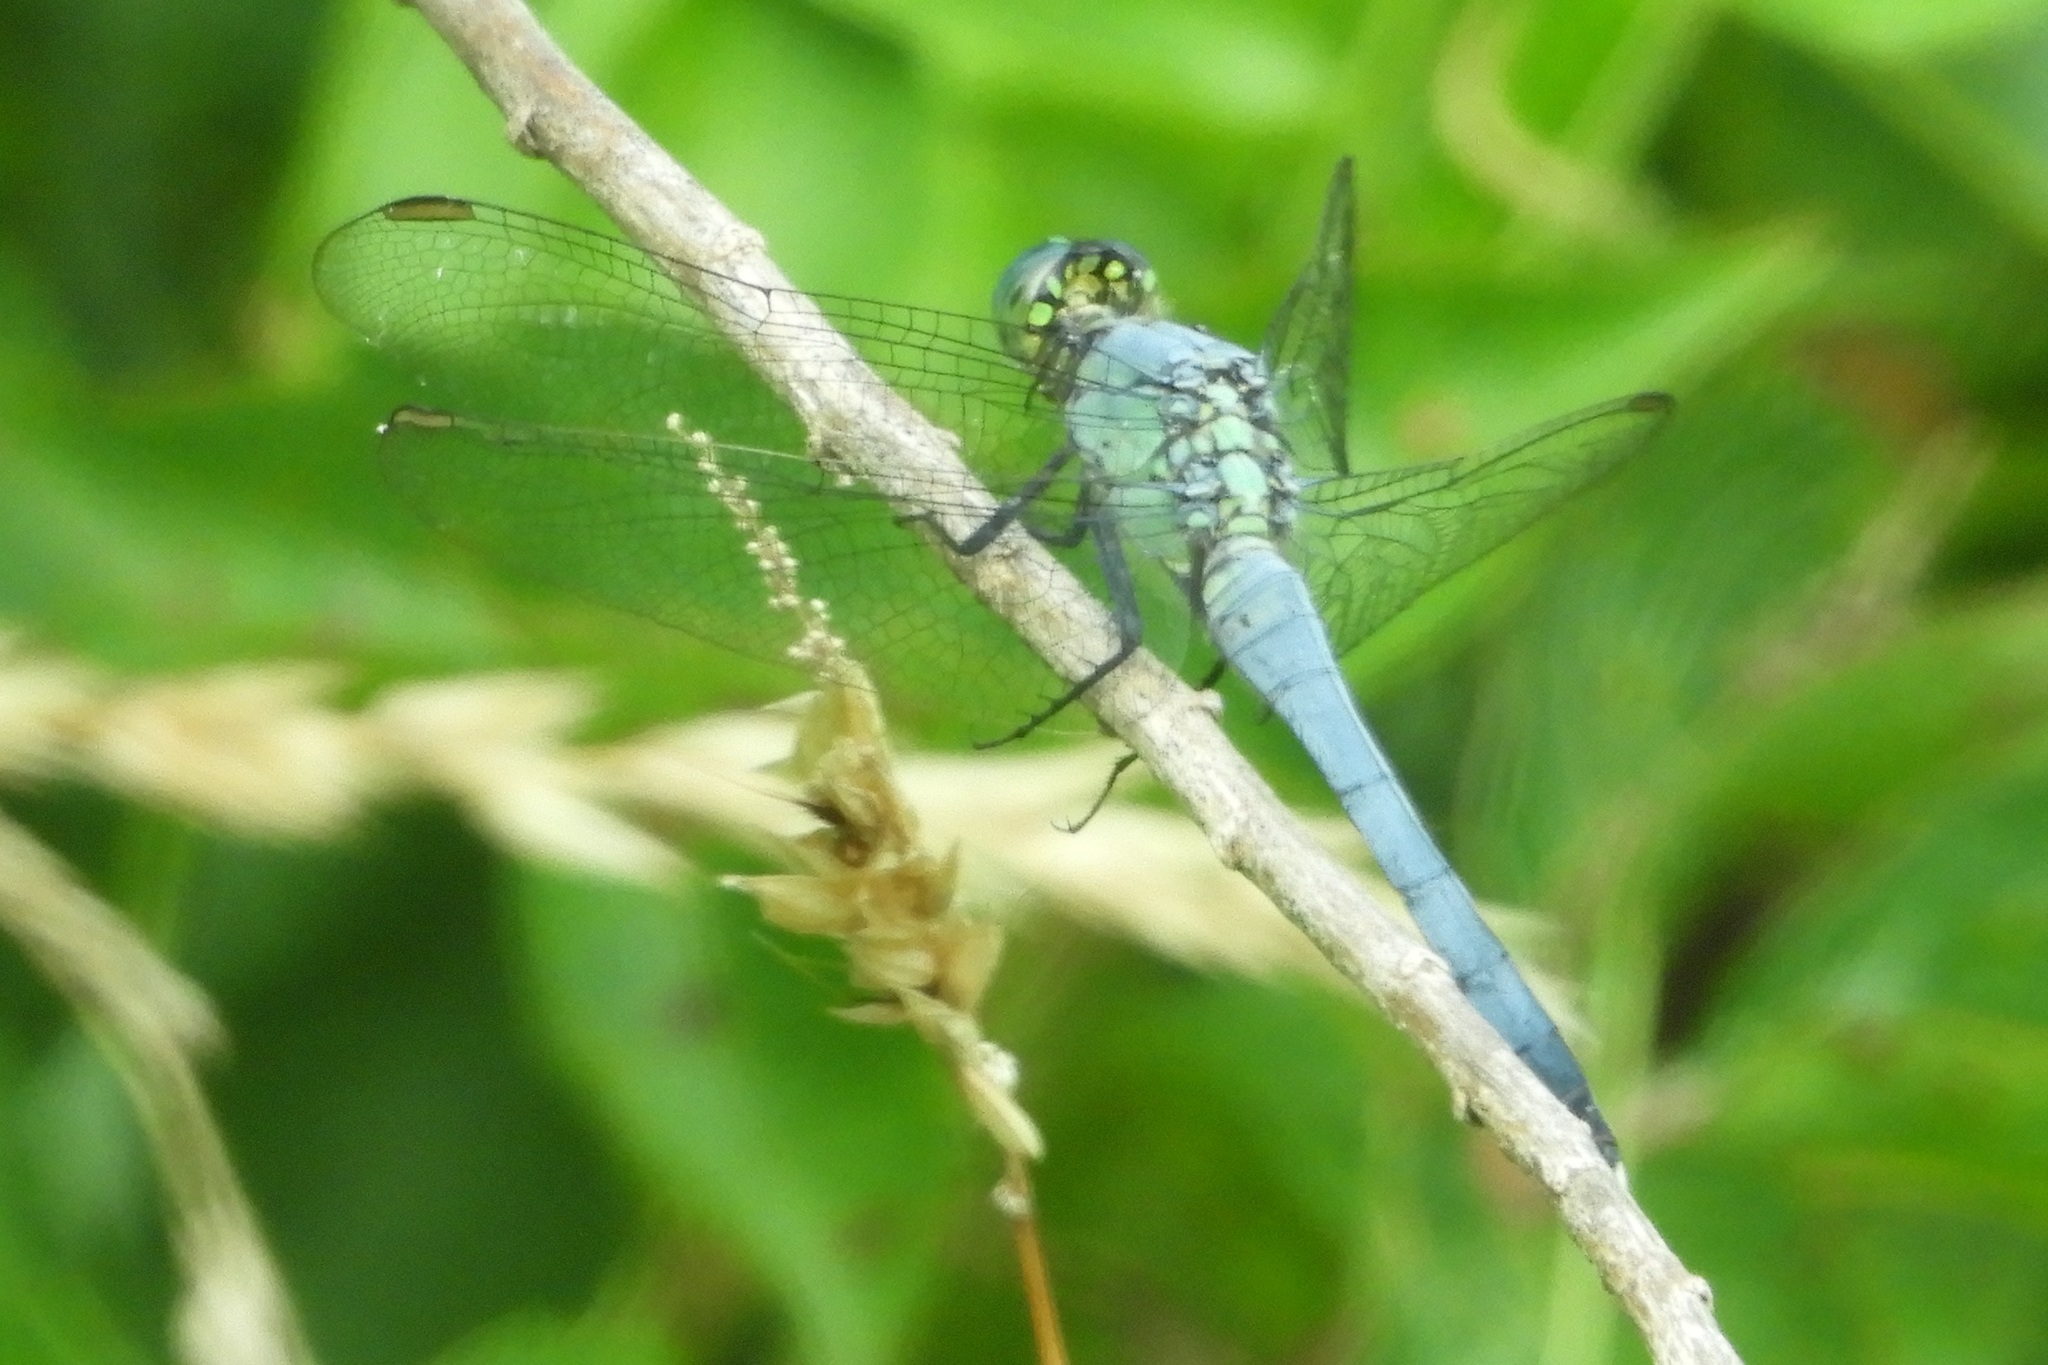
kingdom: Animalia
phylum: Arthropoda
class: Insecta
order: Odonata
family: Libellulidae
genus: Erythemis
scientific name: Erythemis simplicicollis
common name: Eastern pondhawk
